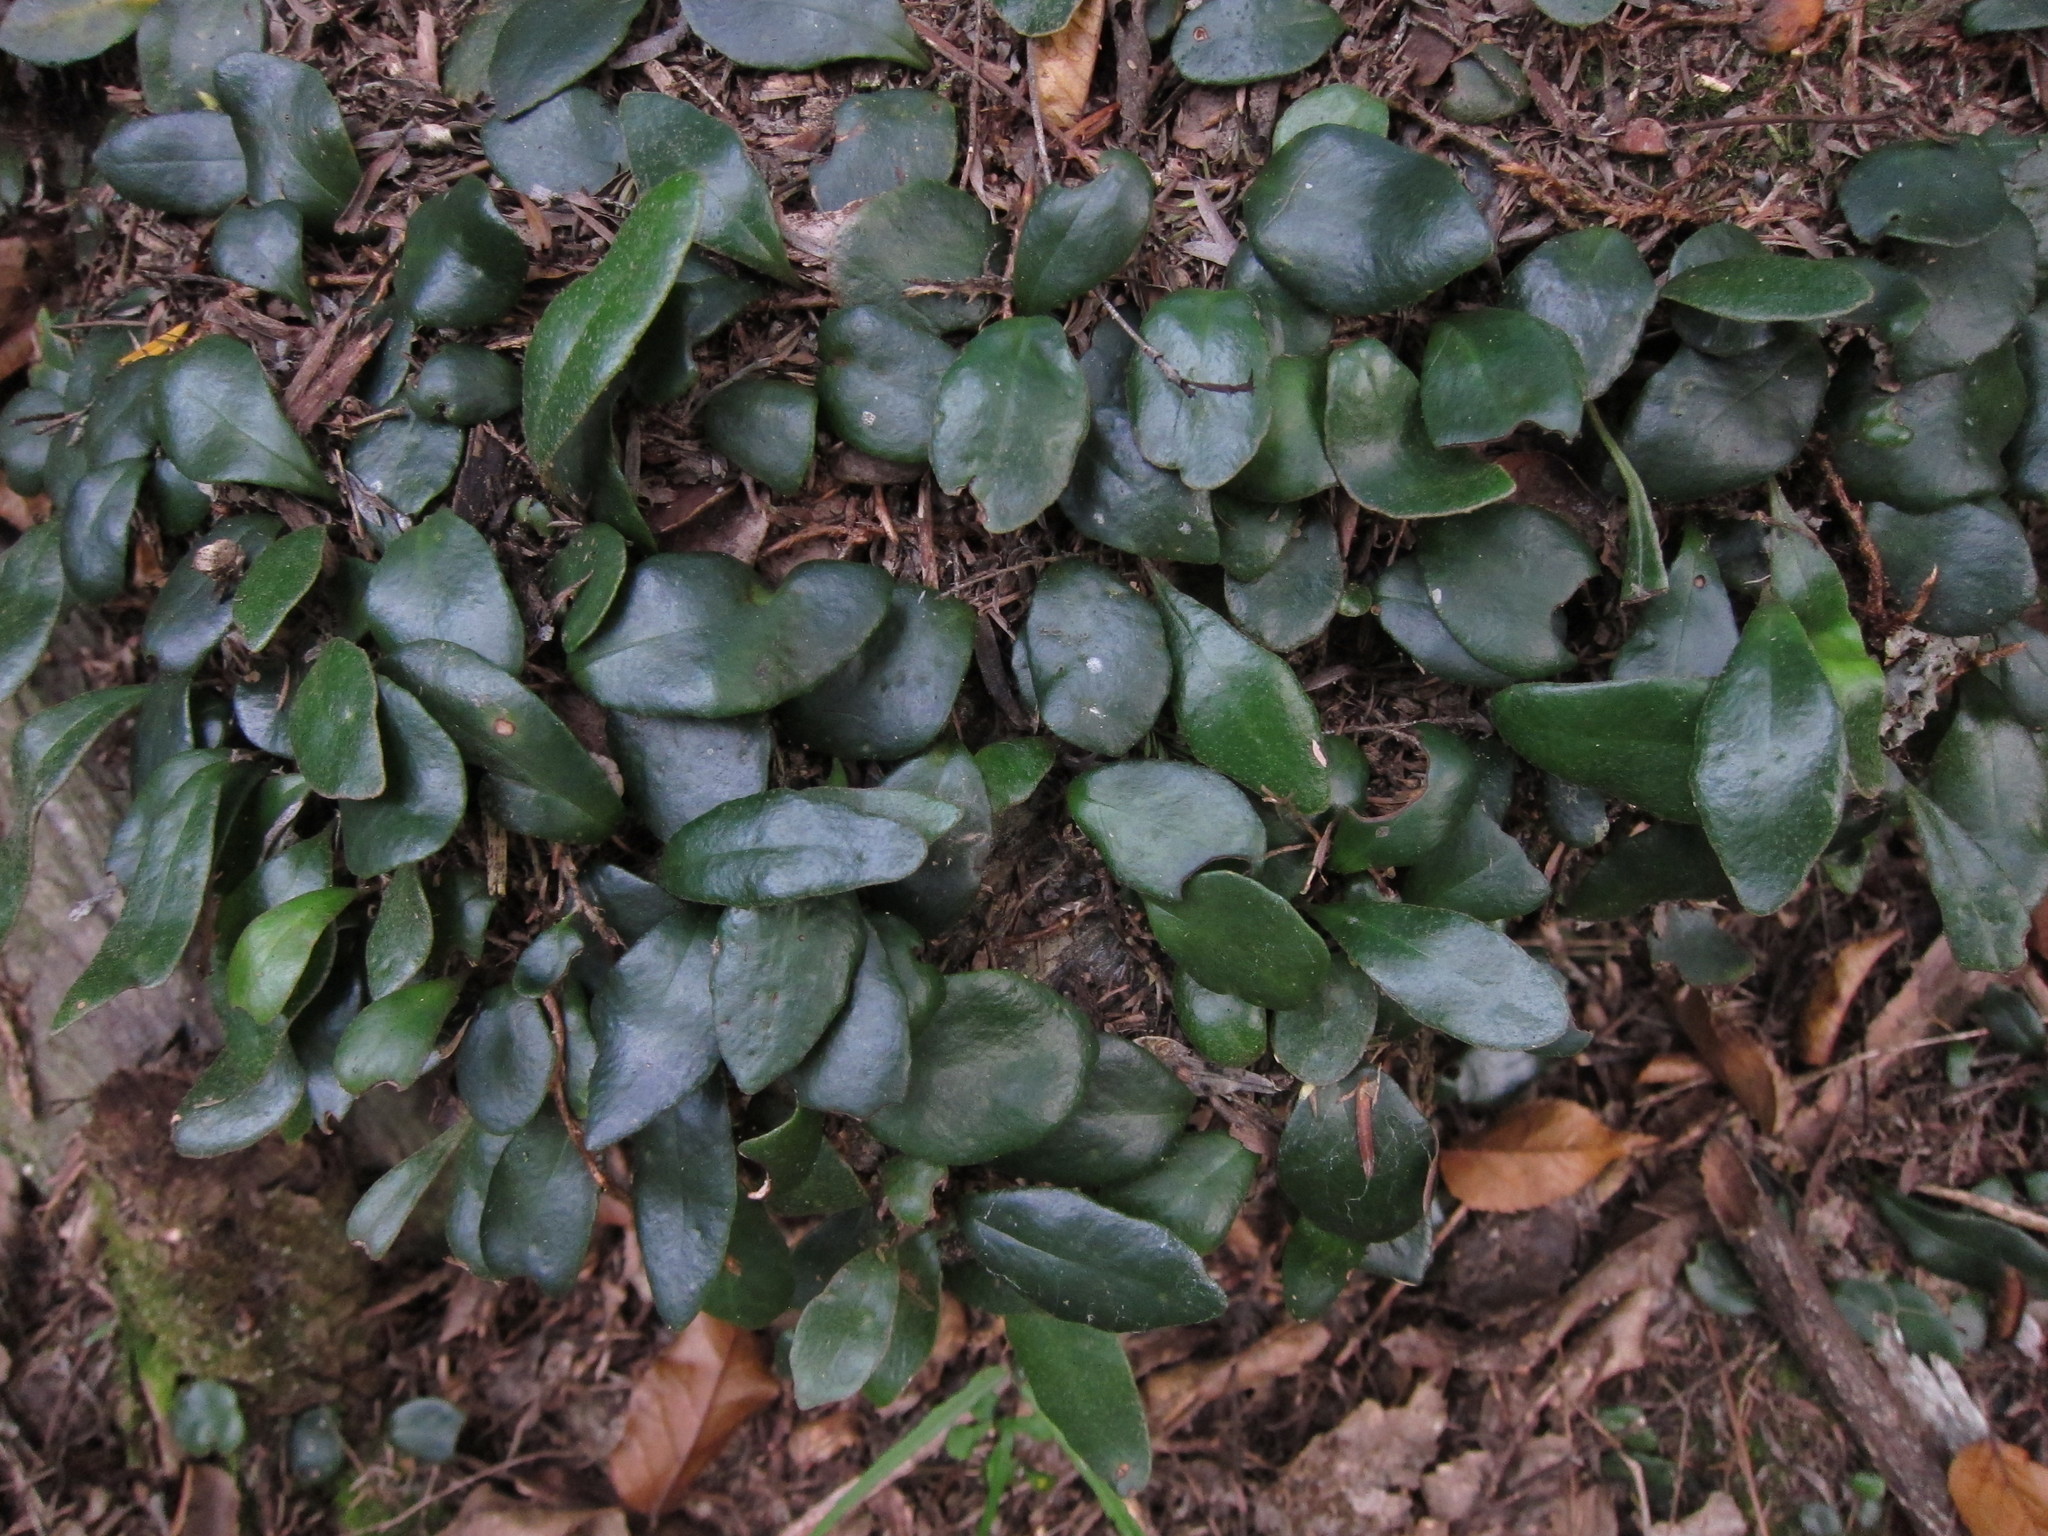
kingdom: Plantae
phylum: Tracheophyta
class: Polypodiopsida
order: Polypodiales
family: Polypodiaceae
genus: Pyrrosia
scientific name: Pyrrosia eleagnifolia
